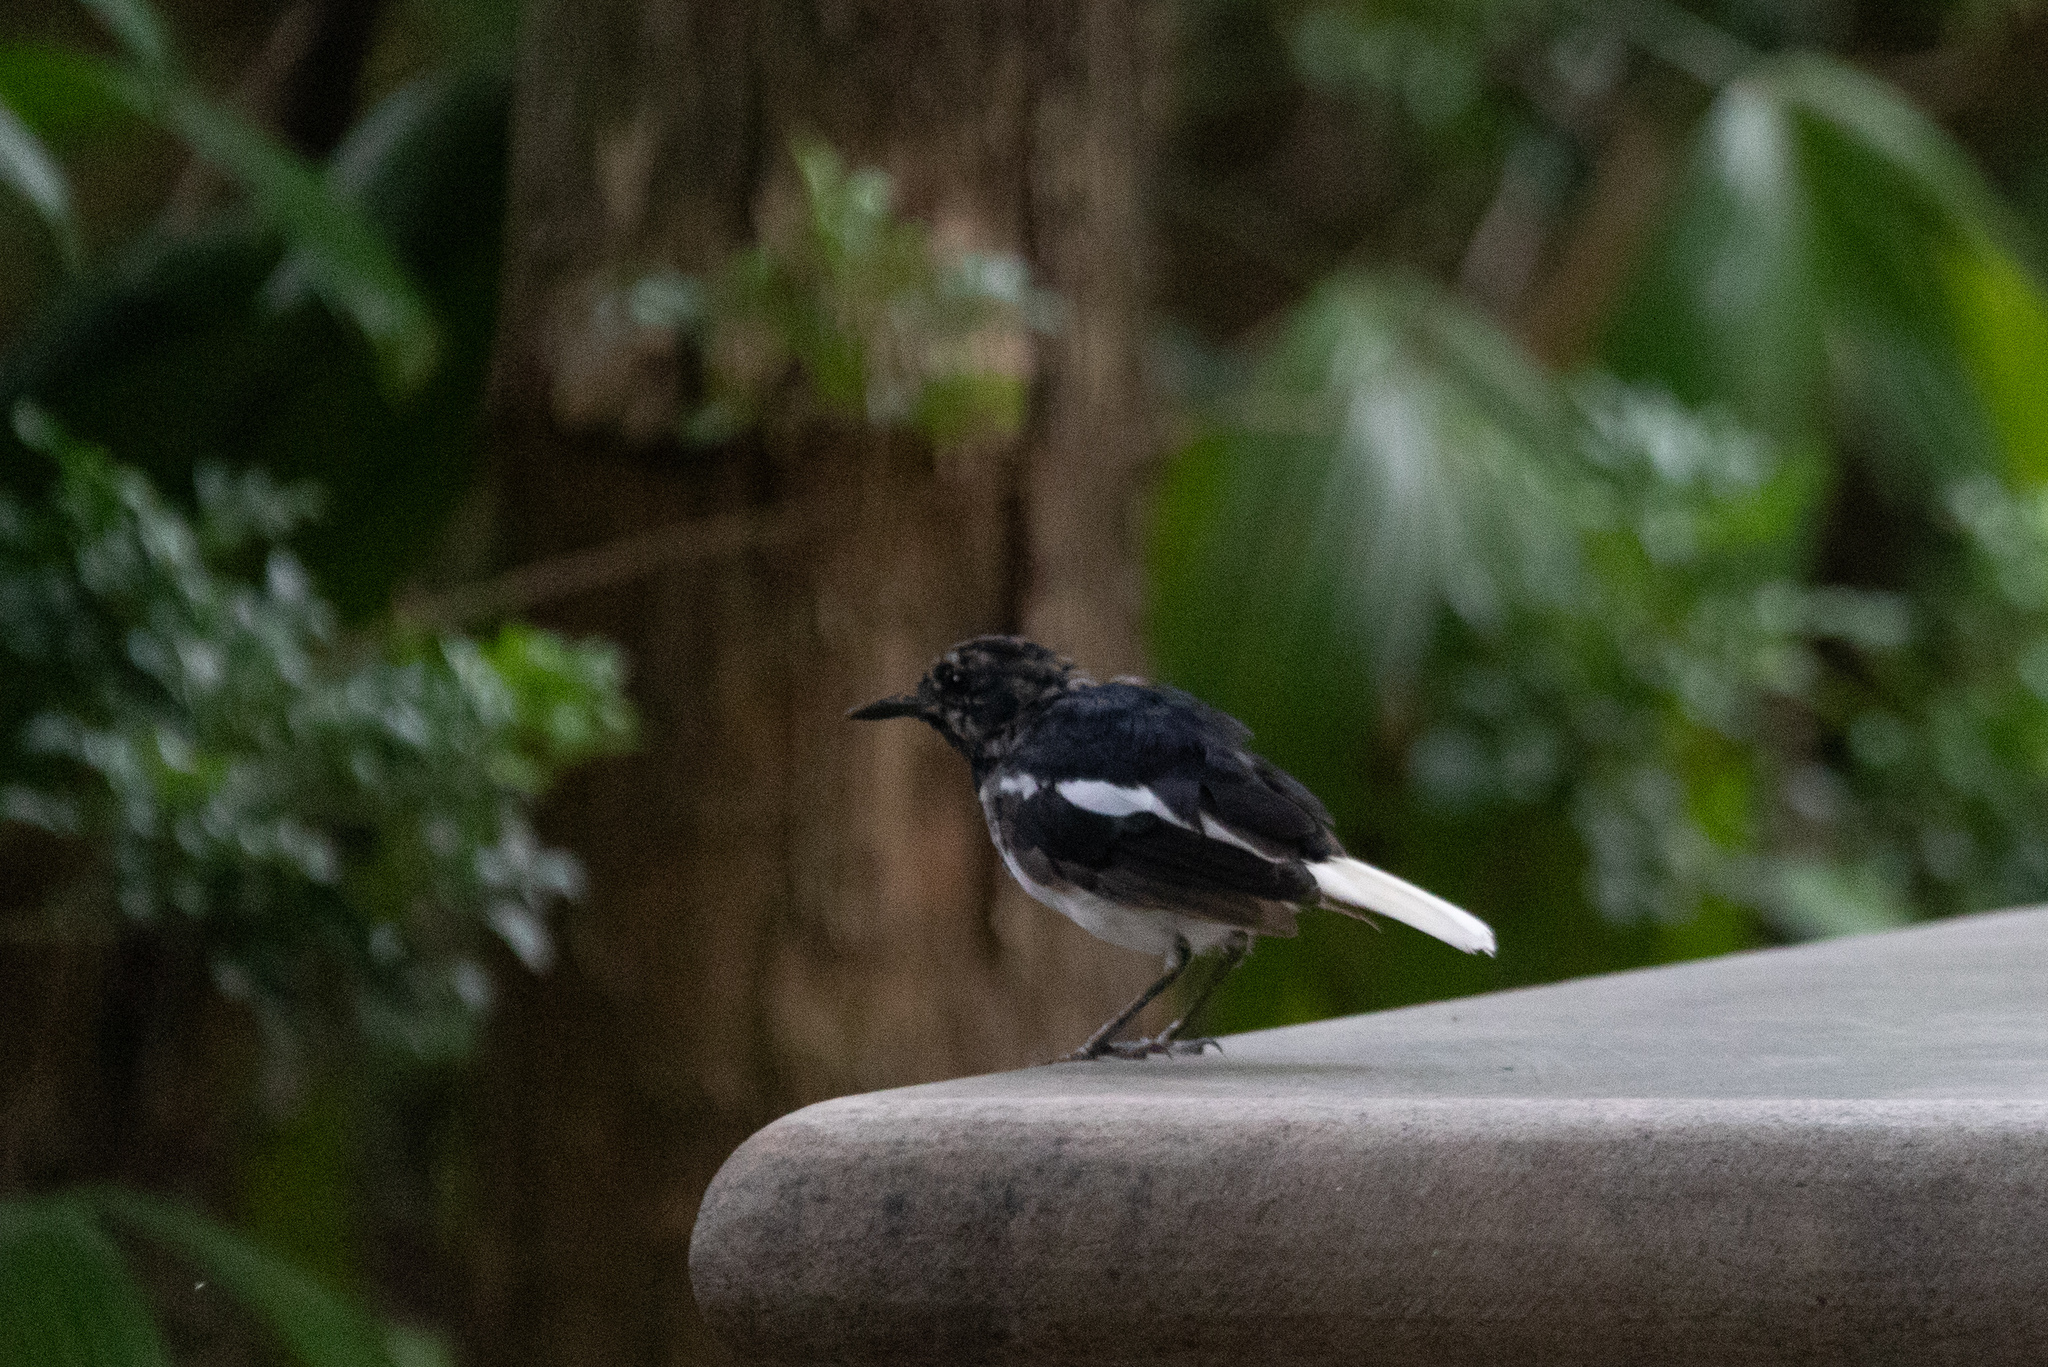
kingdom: Animalia
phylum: Chordata
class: Aves
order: Passeriformes
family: Muscicapidae
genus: Copsychus
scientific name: Copsychus saularis
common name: Oriental magpie-robin
